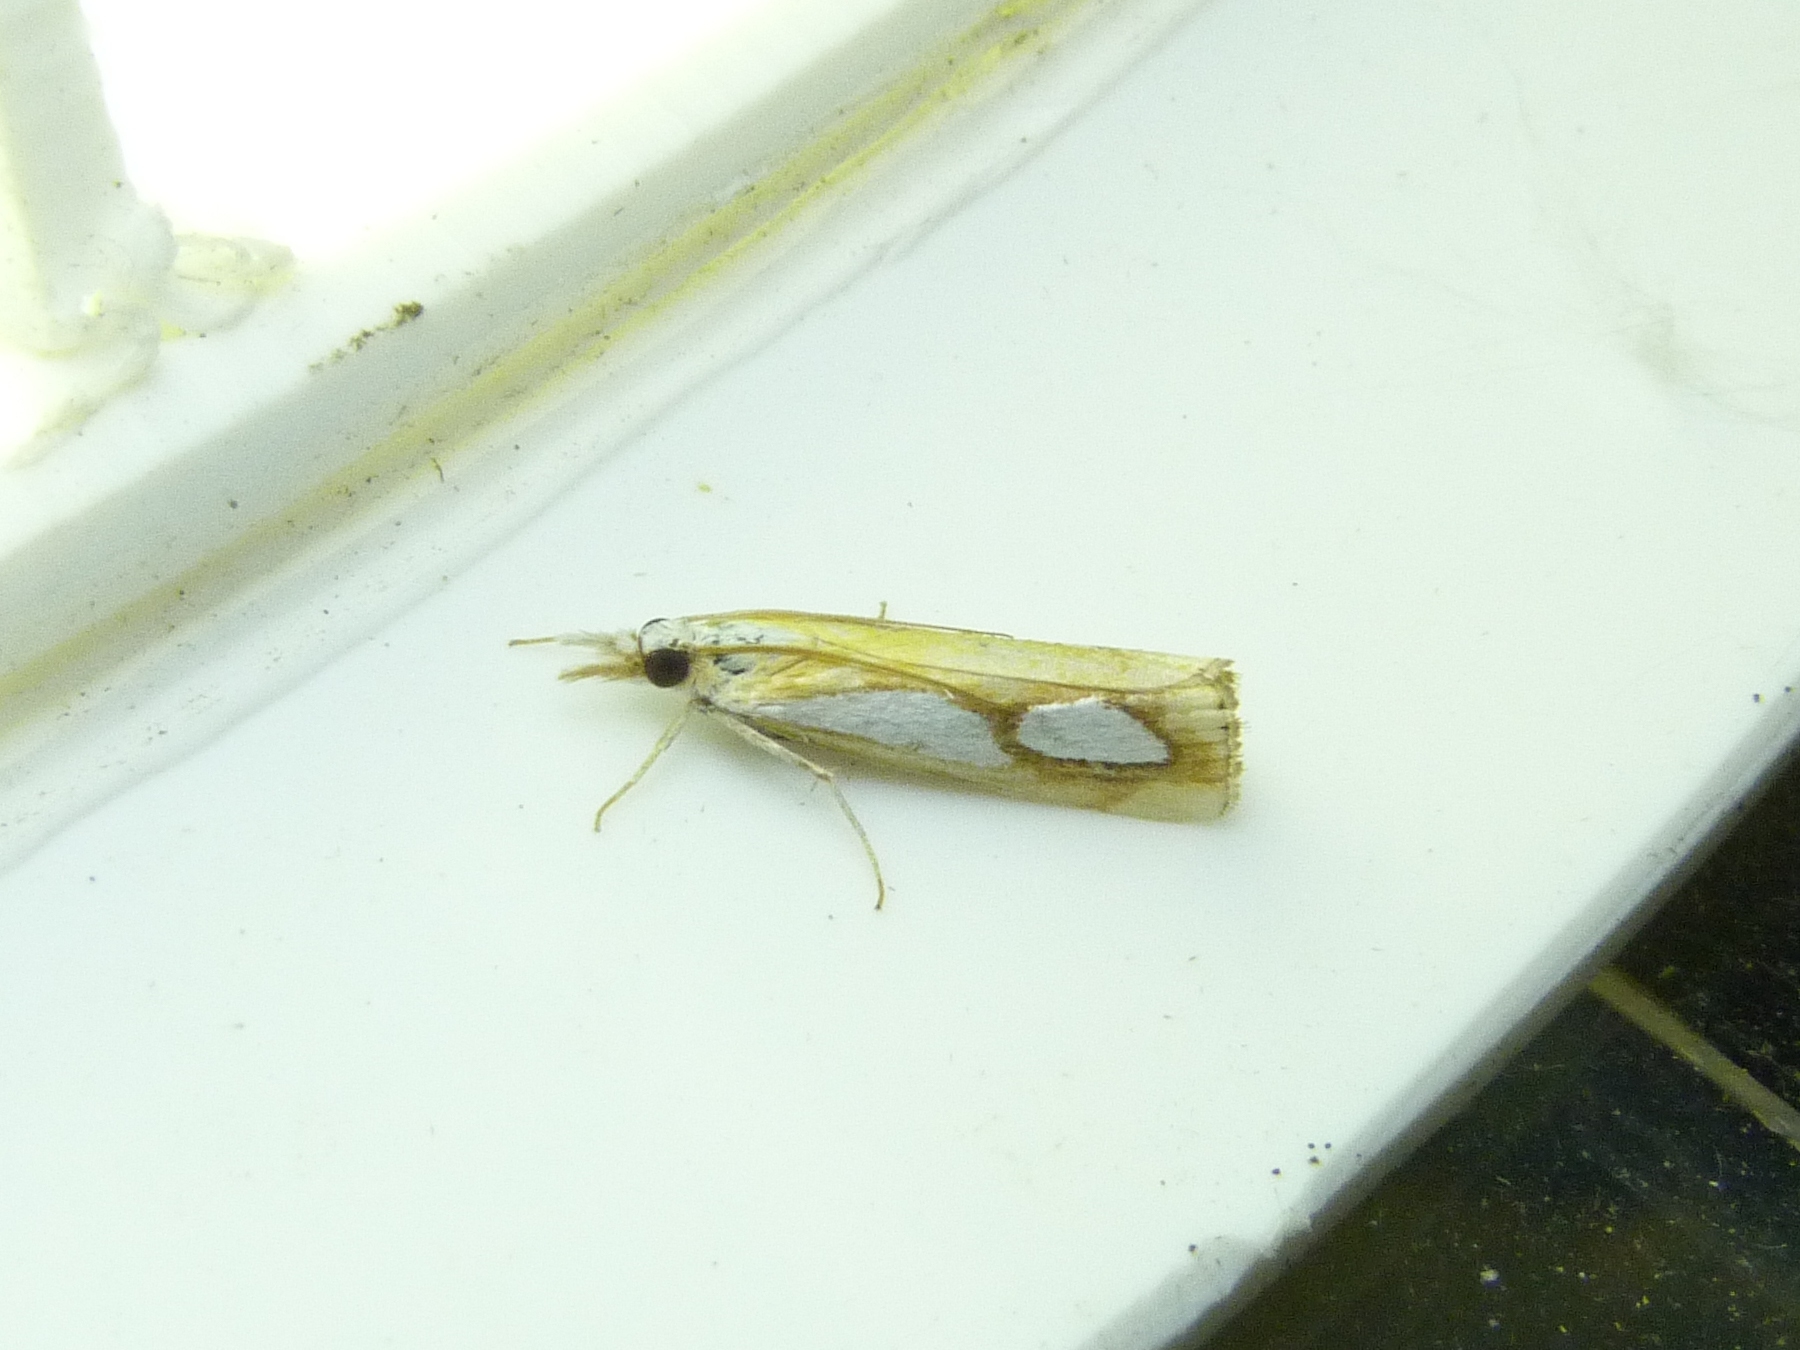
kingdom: Animalia
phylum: Arthropoda
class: Insecta
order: Lepidoptera
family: Crambidae
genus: Catoptria
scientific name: Catoptria pinella
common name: Pearl grass-veneer
